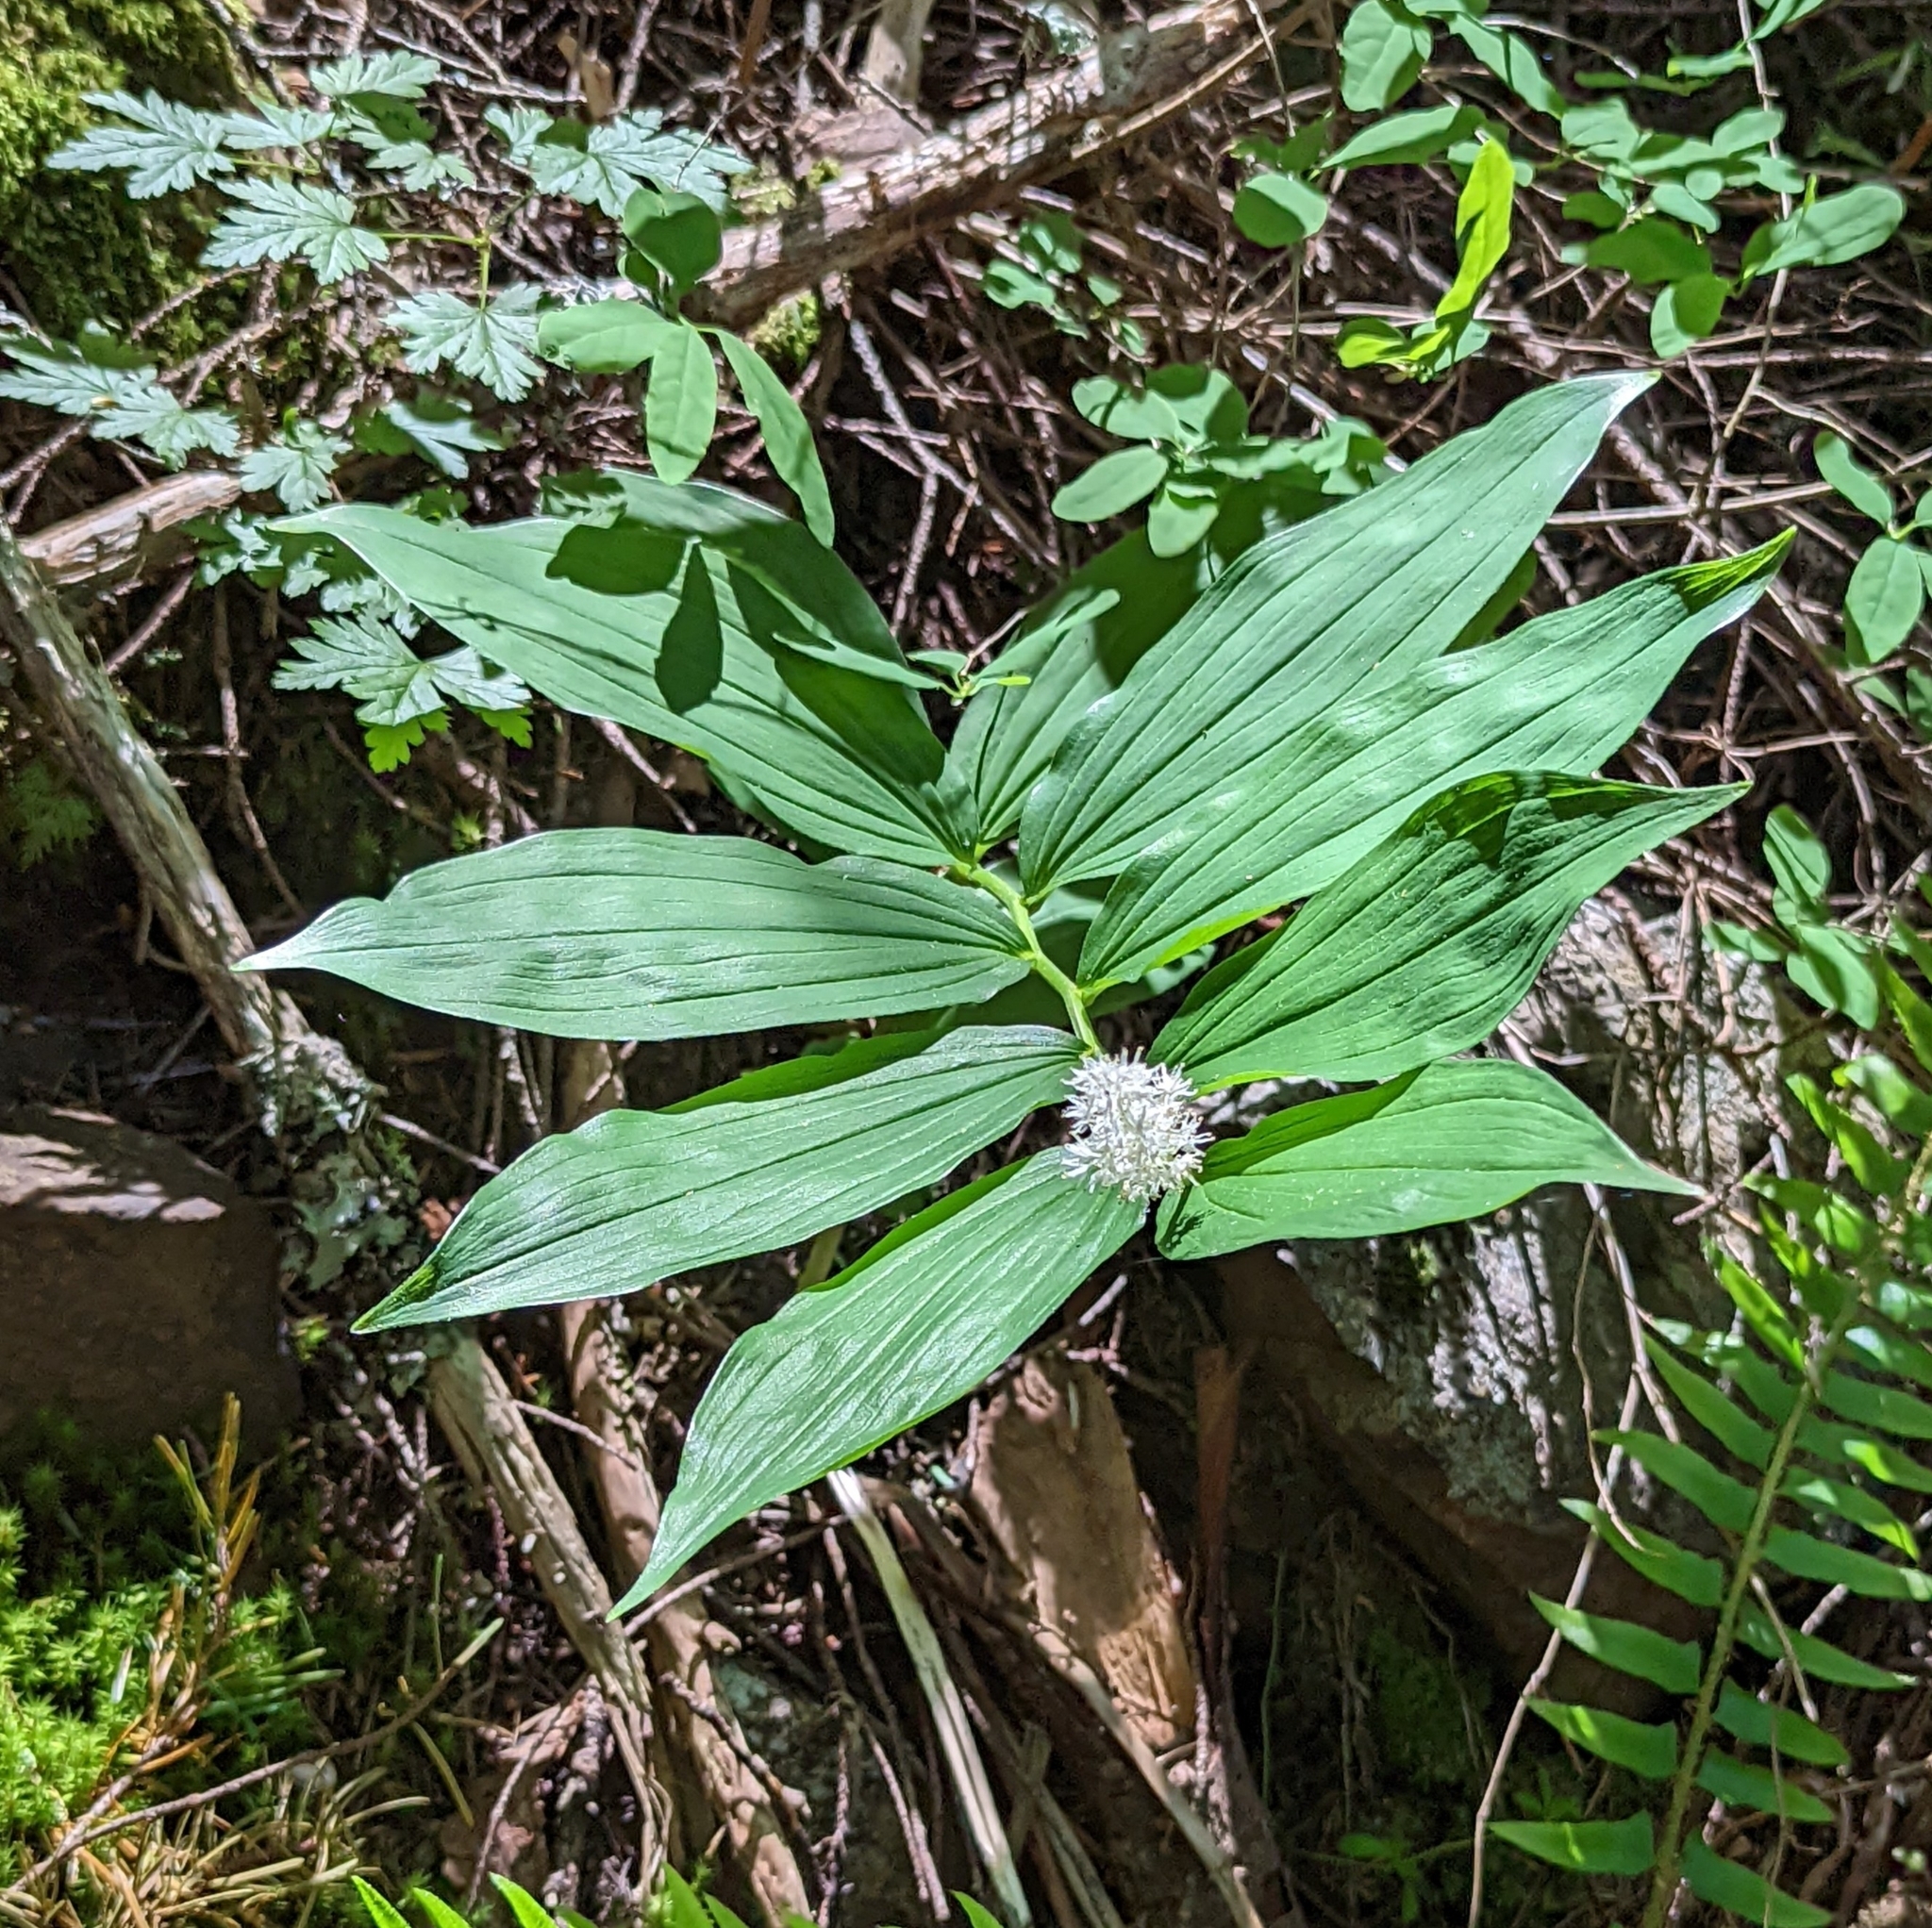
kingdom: Plantae
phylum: Tracheophyta
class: Liliopsida
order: Asparagales
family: Asparagaceae
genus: Maianthemum
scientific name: Maianthemum racemosum
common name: False spikenard
